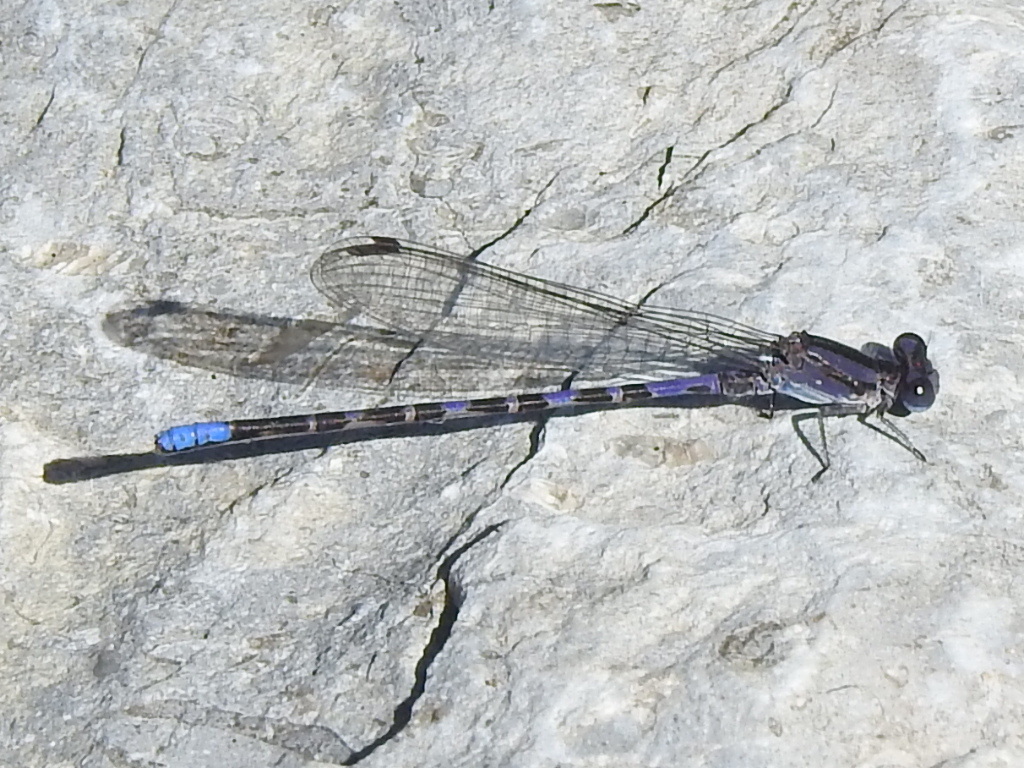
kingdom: Animalia
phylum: Arthropoda
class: Insecta
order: Odonata
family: Coenagrionidae
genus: Argia
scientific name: Argia immunda
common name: Kiowa dancer
